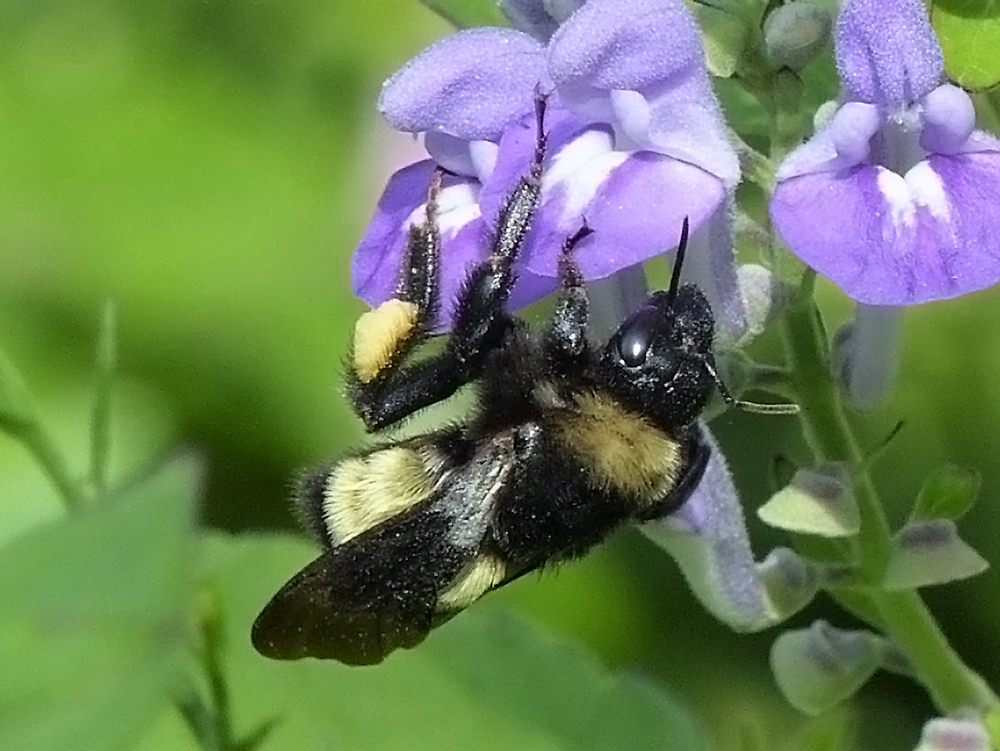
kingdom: Animalia
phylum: Arthropoda
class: Insecta
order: Hymenoptera
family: Apidae
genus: Bombus
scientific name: Bombus pensylvanicus
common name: Bumble bee
